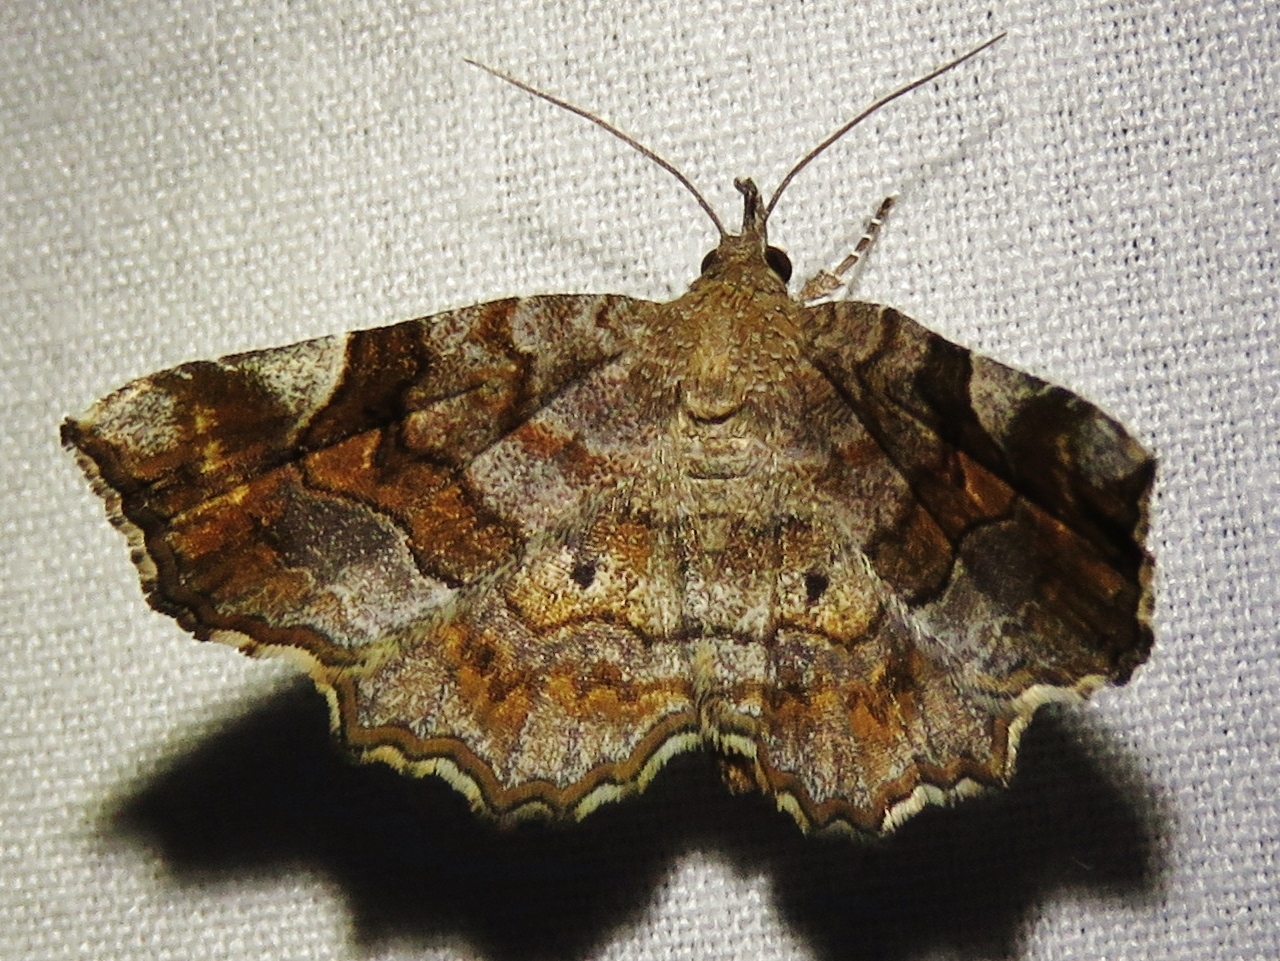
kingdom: Animalia
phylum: Arthropoda
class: Insecta
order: Lepidoptera
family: Erebidae
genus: Pangrapta
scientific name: Pangrapta decoralis
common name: Decorated owlet
